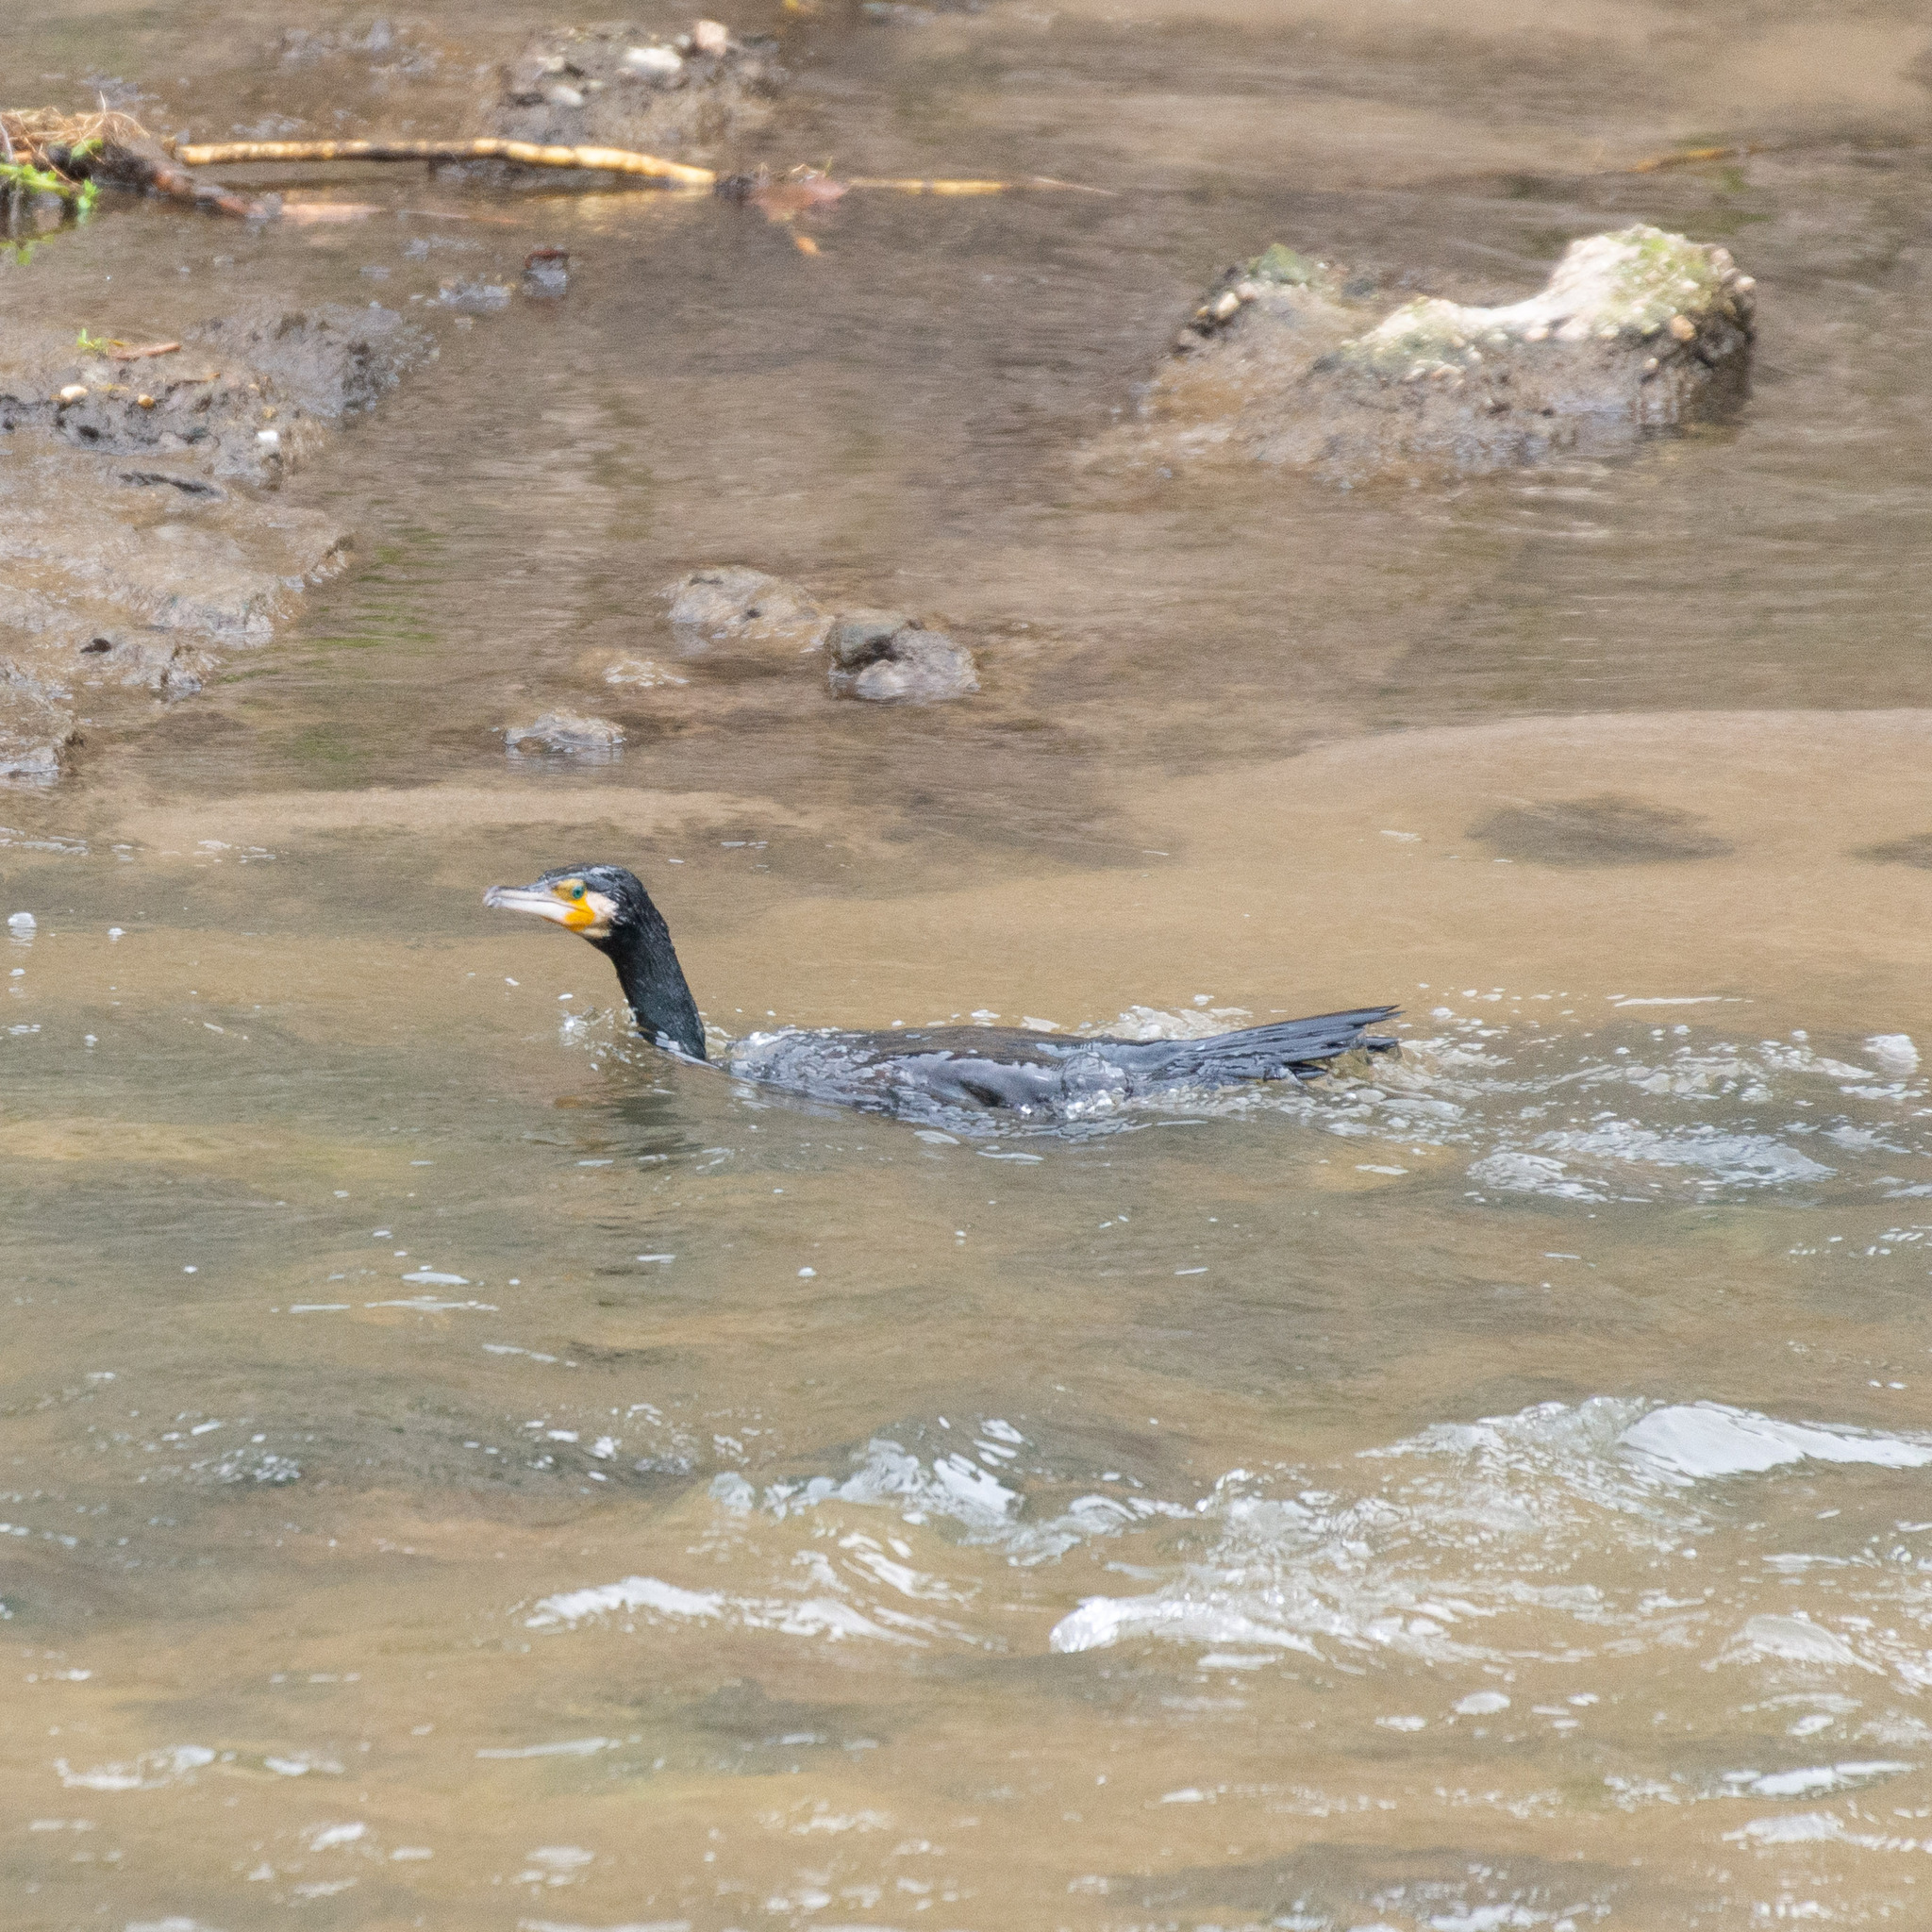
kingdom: Animalia
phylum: Chordata
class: Aves
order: Suliformes
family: Phalacrocoracidae
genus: Phalacrocorax
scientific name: Phalacrocorax carbo
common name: Great cormorant
